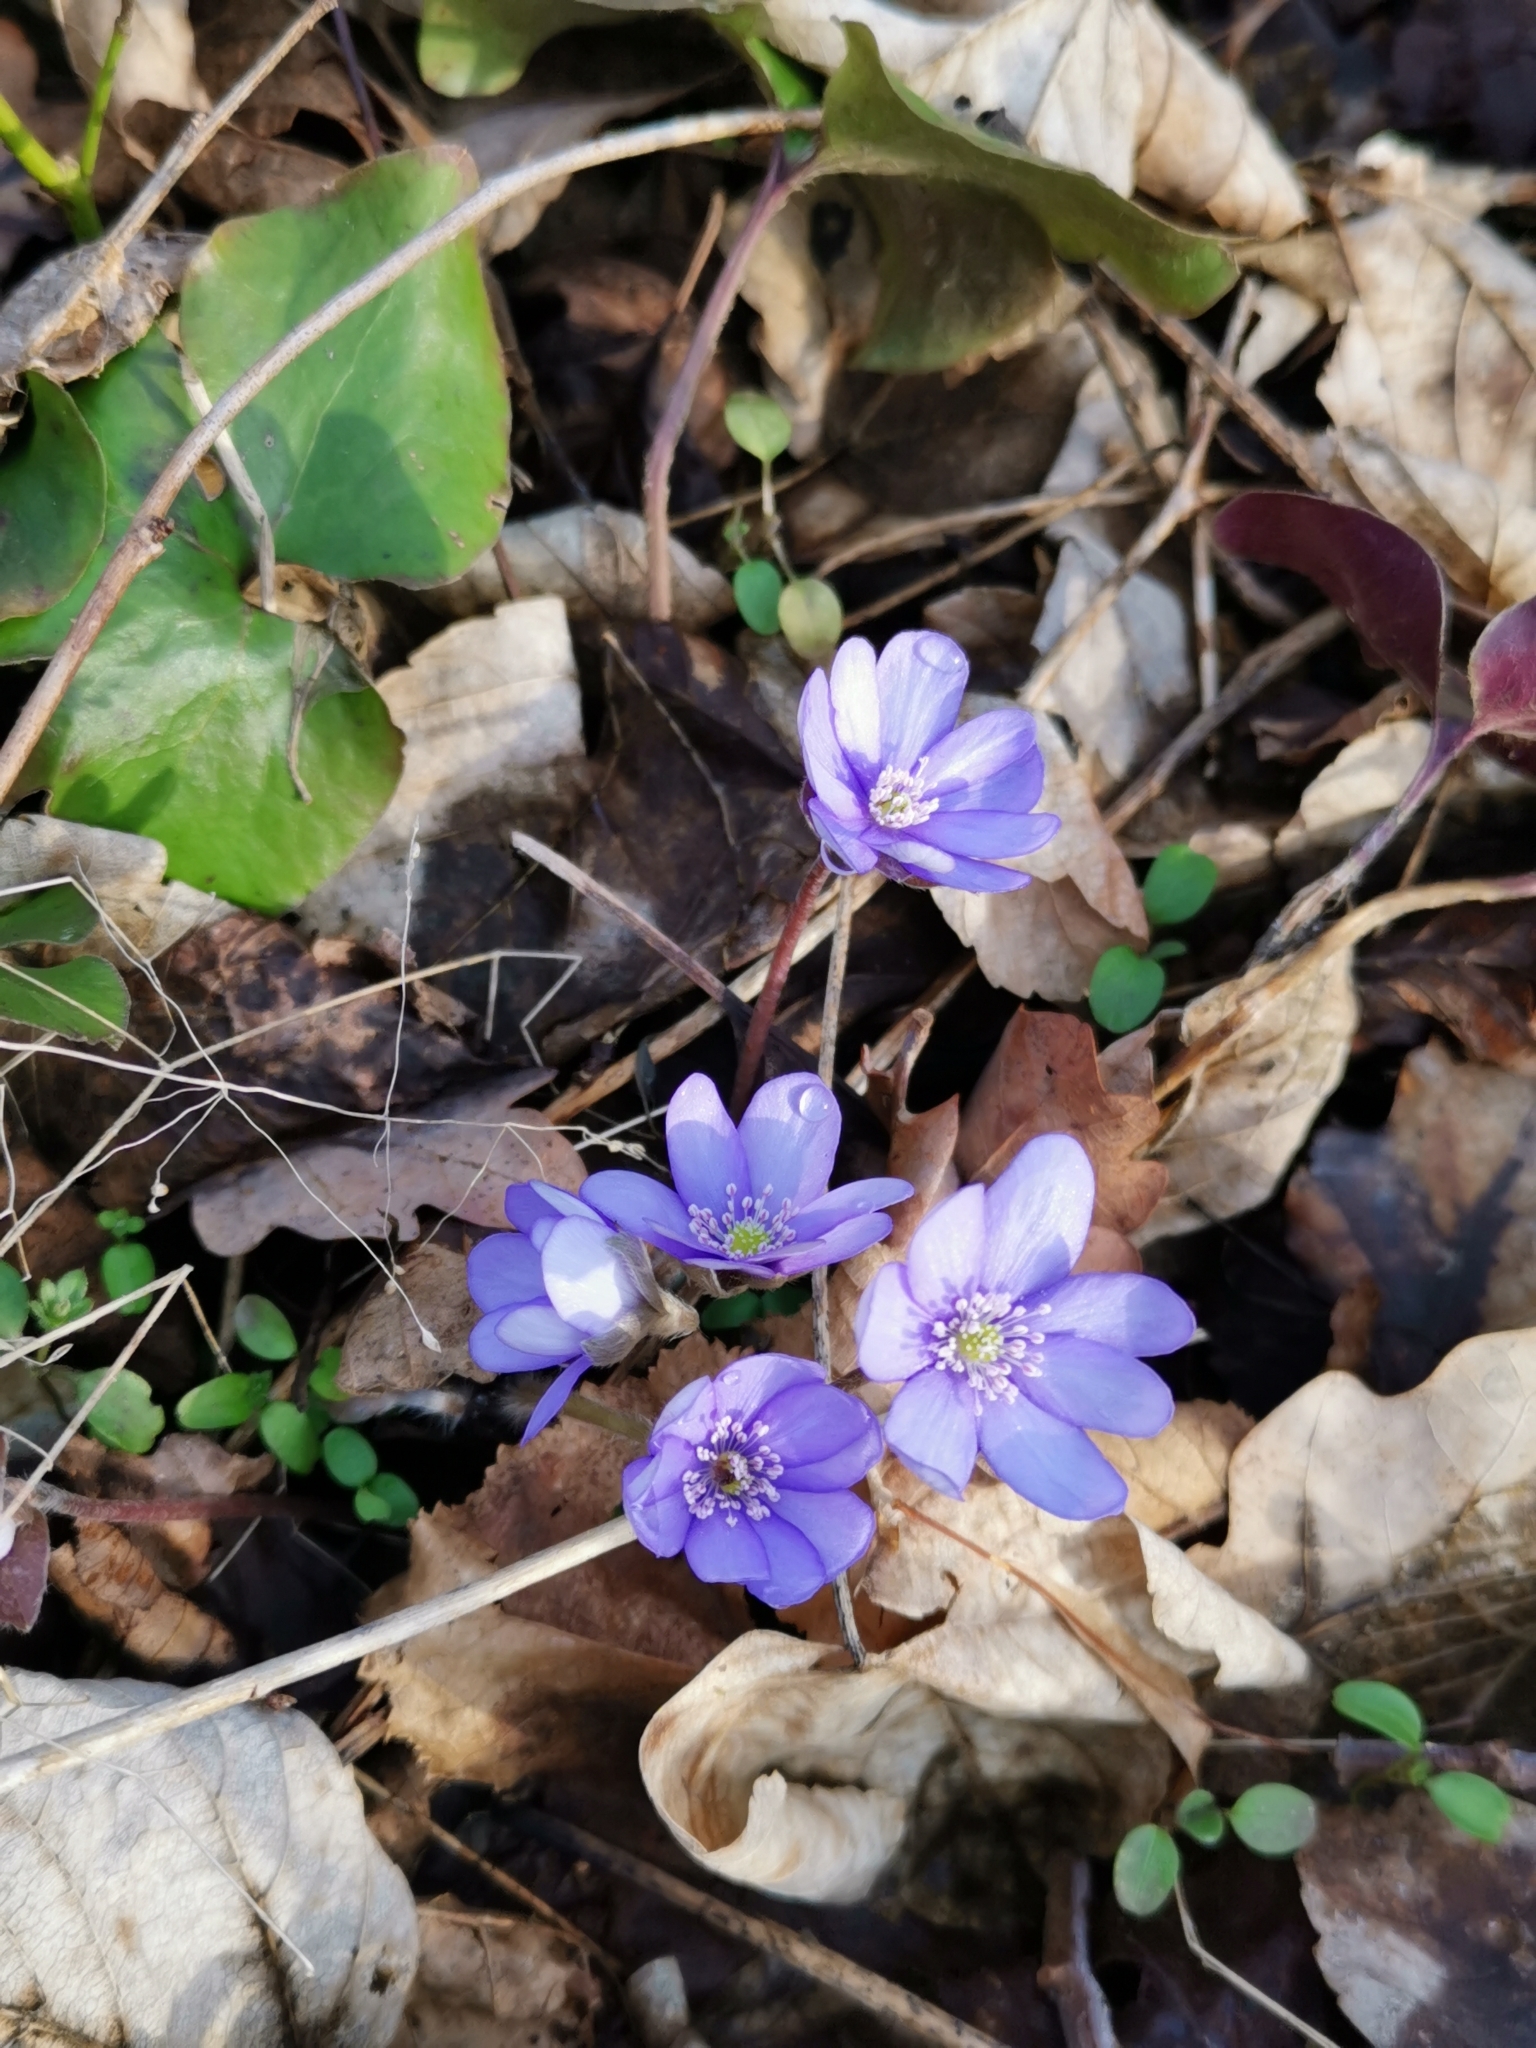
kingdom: Plantae
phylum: Tracheophyta
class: Magnoliopsida
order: Ranunculales
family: Ranunculaceae
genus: Hepatica
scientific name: Hepatica nobilis
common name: Liverleaf
